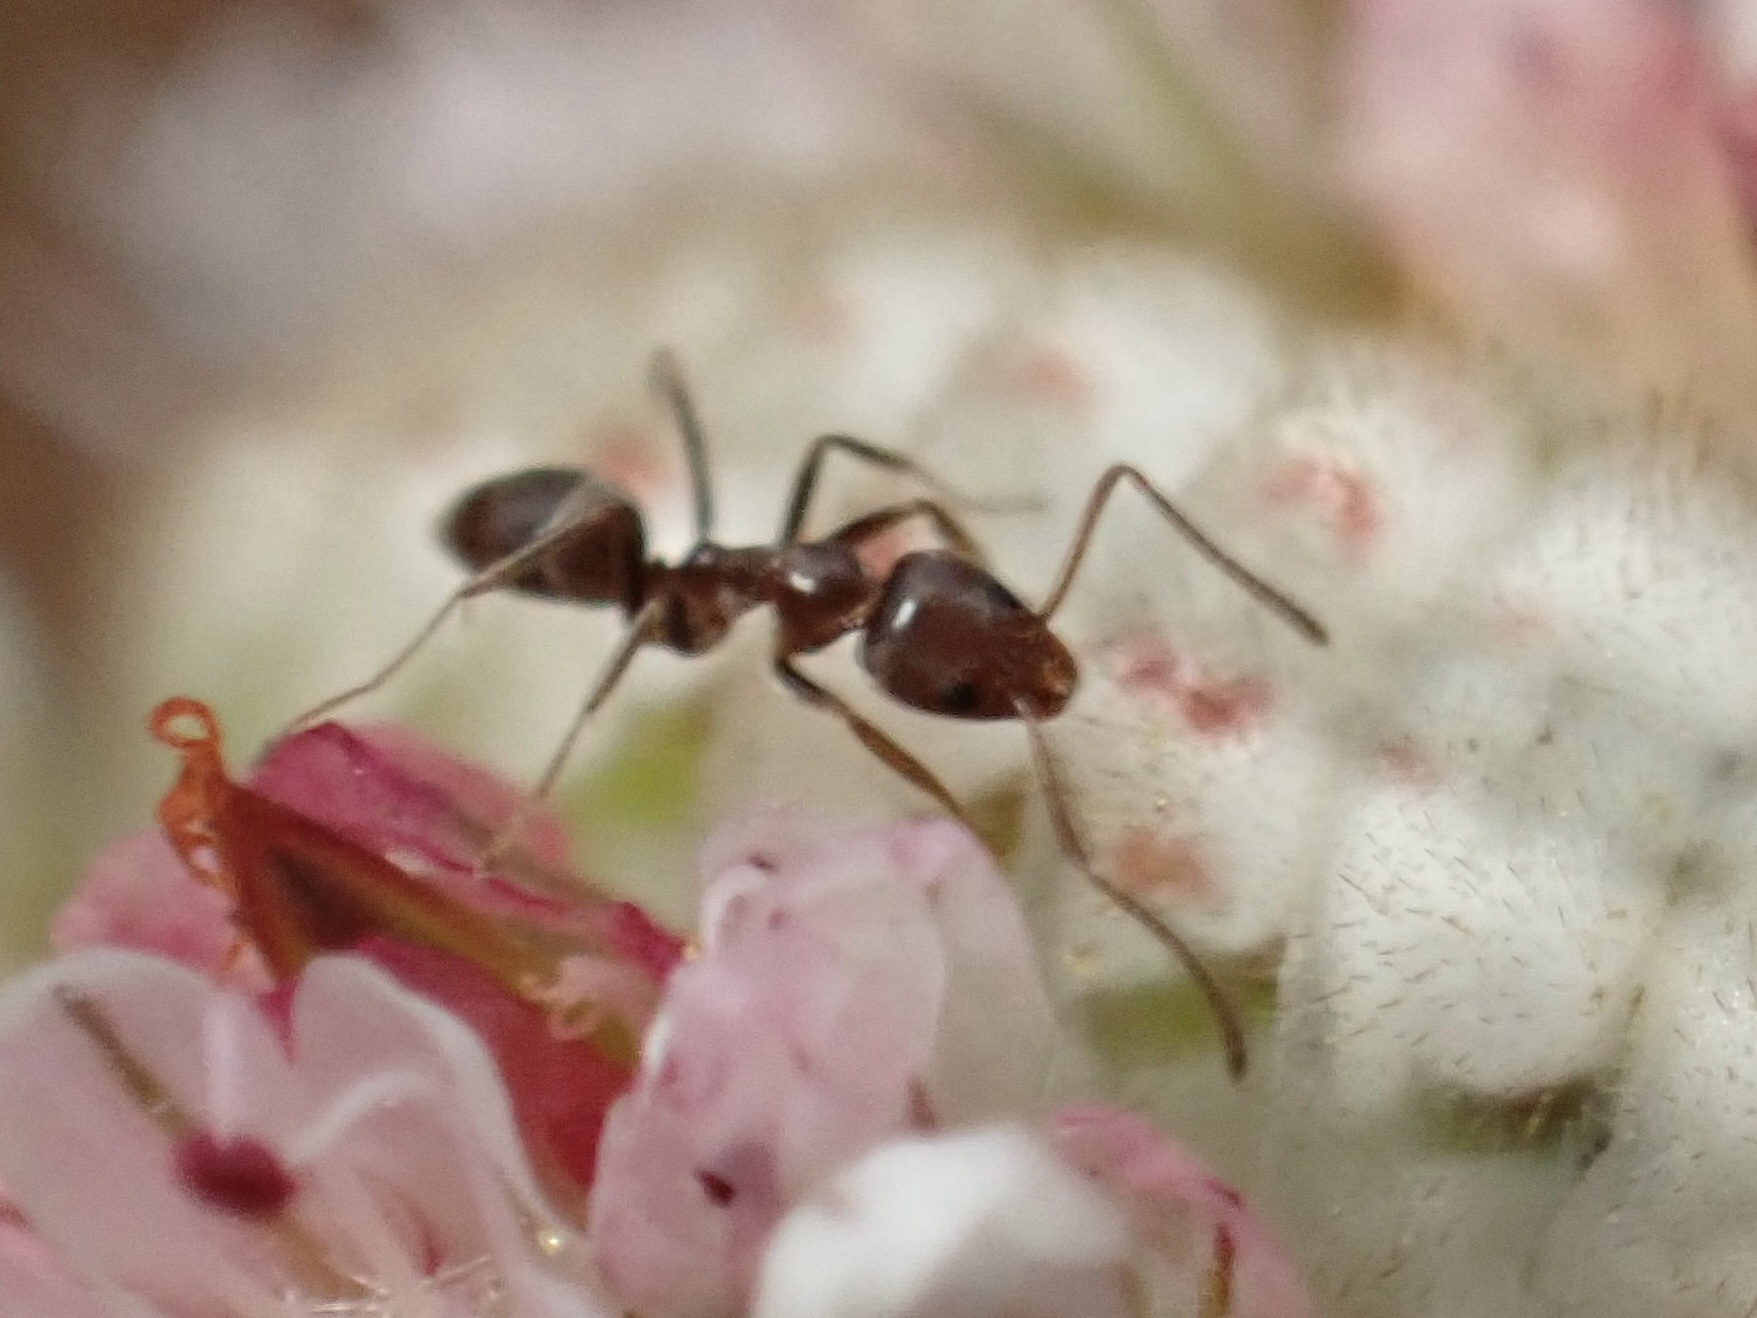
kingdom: Animalia
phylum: Arthropoda
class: Insecta
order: Hymenoptera
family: Formicidae
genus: Linepithema
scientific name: Linepithema humile
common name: Argentine ant
